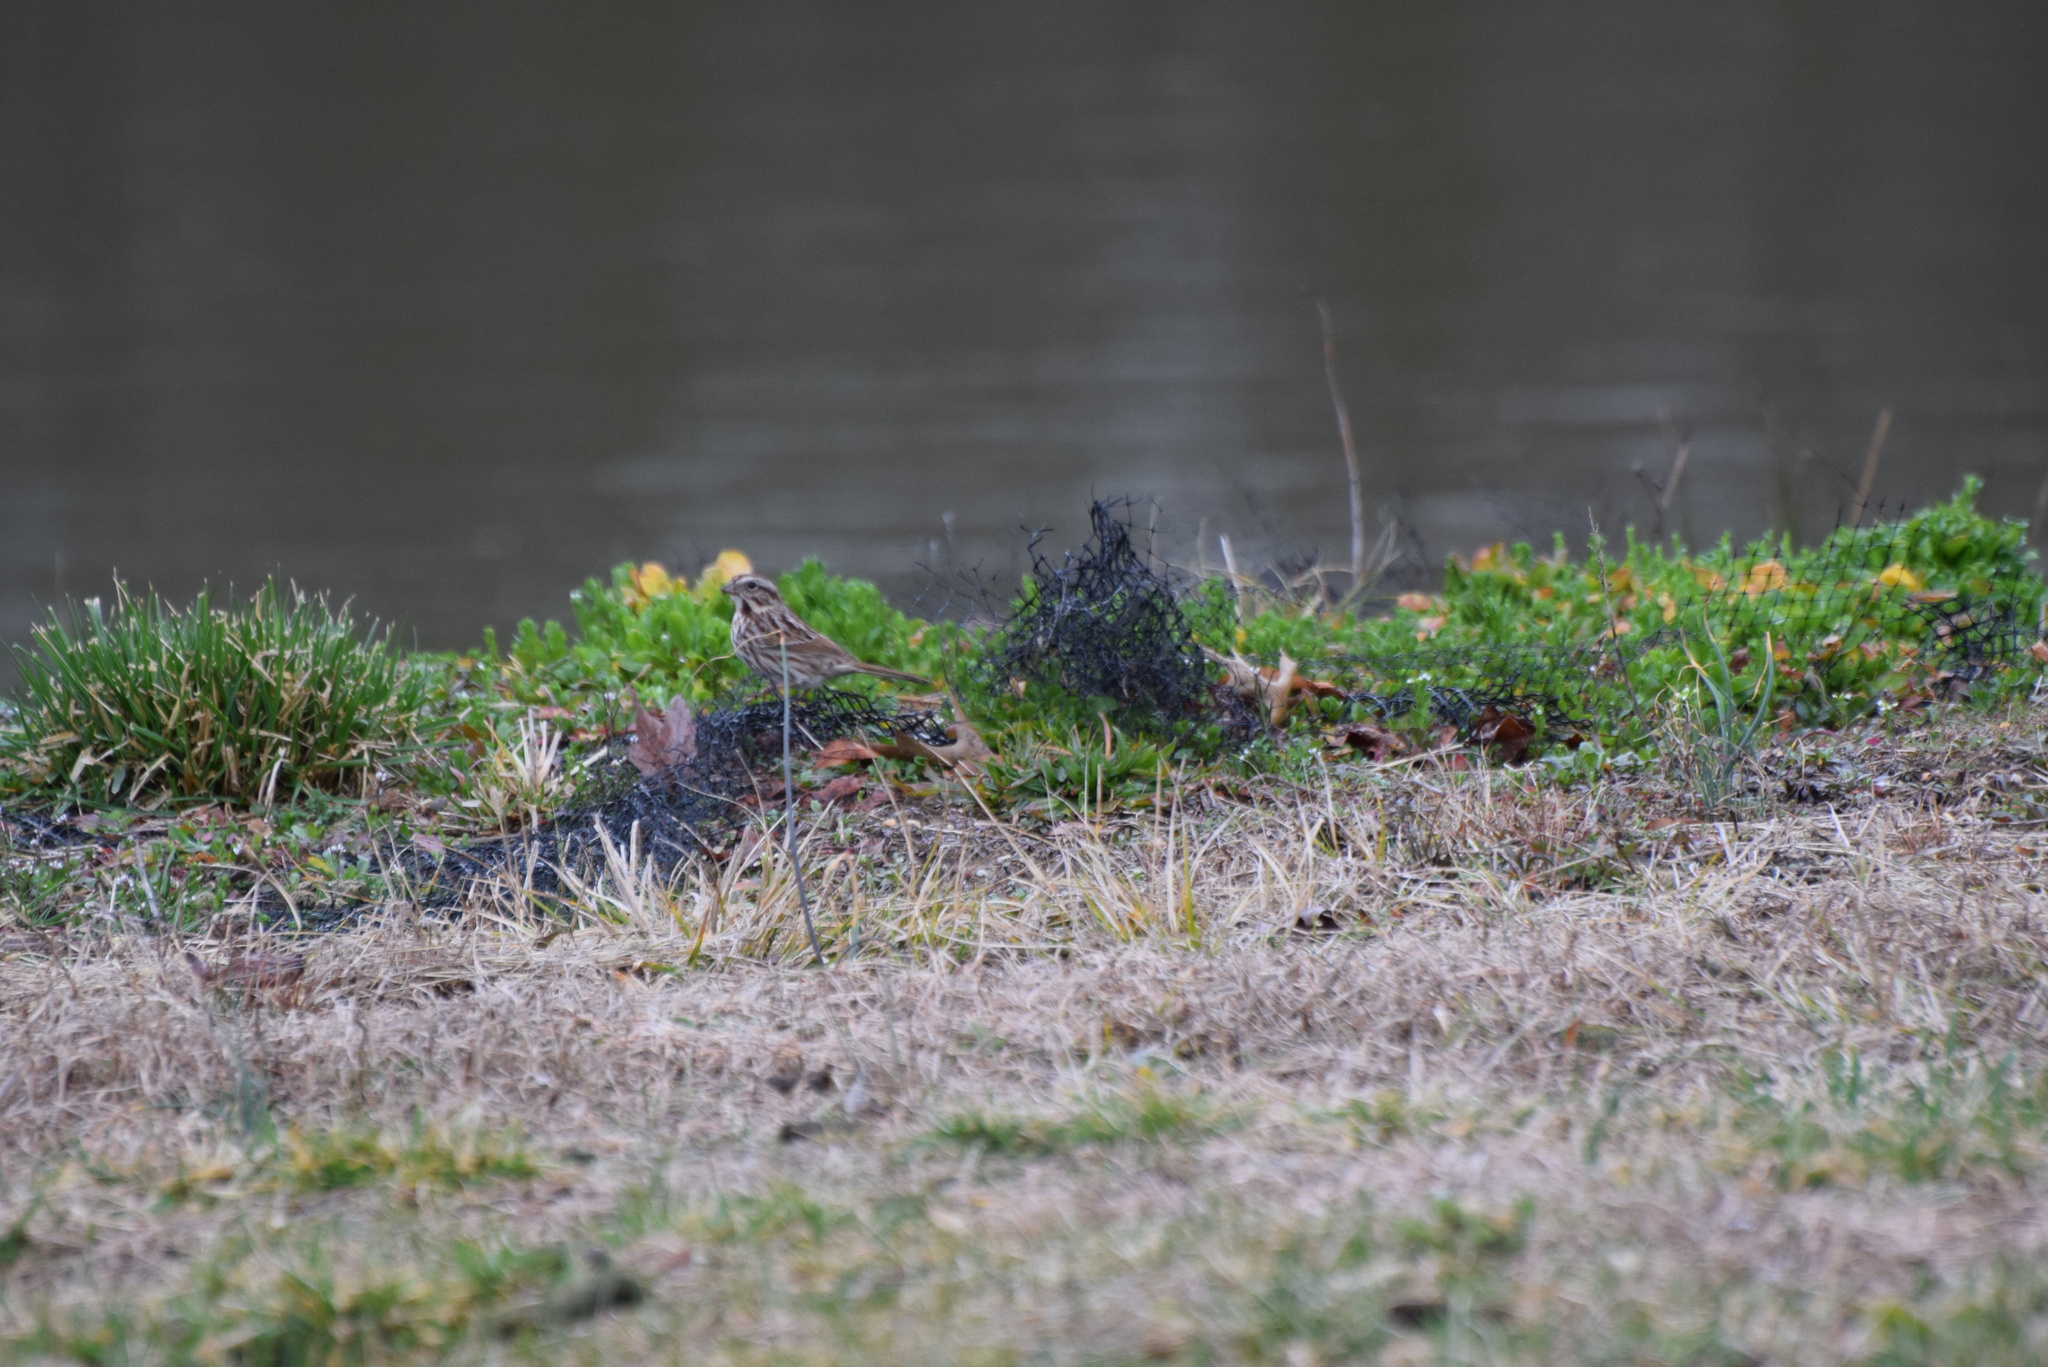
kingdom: Animalia
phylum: Chordata
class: Aves
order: Passeriformes
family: Passerellidae
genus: Melospiza
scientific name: Melospiza melodia
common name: Song sparrow
